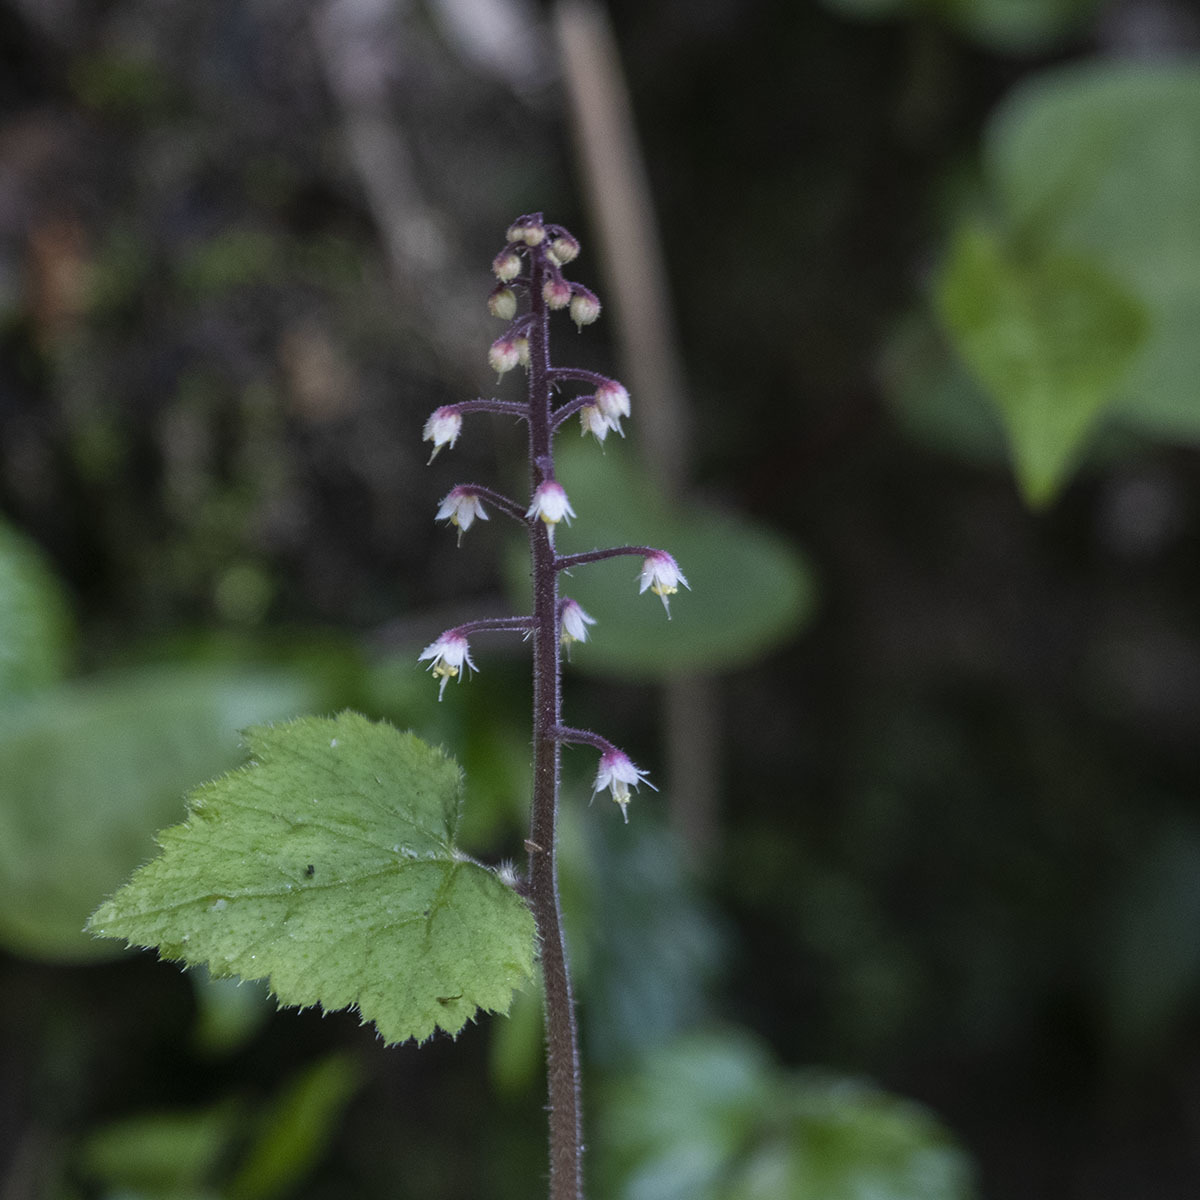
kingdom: Plantae
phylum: Tracheophyta
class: Magnoliopsida
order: Saxifragales
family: Saxifragaceae
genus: Tiarella
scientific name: Tiarella polyphylla
